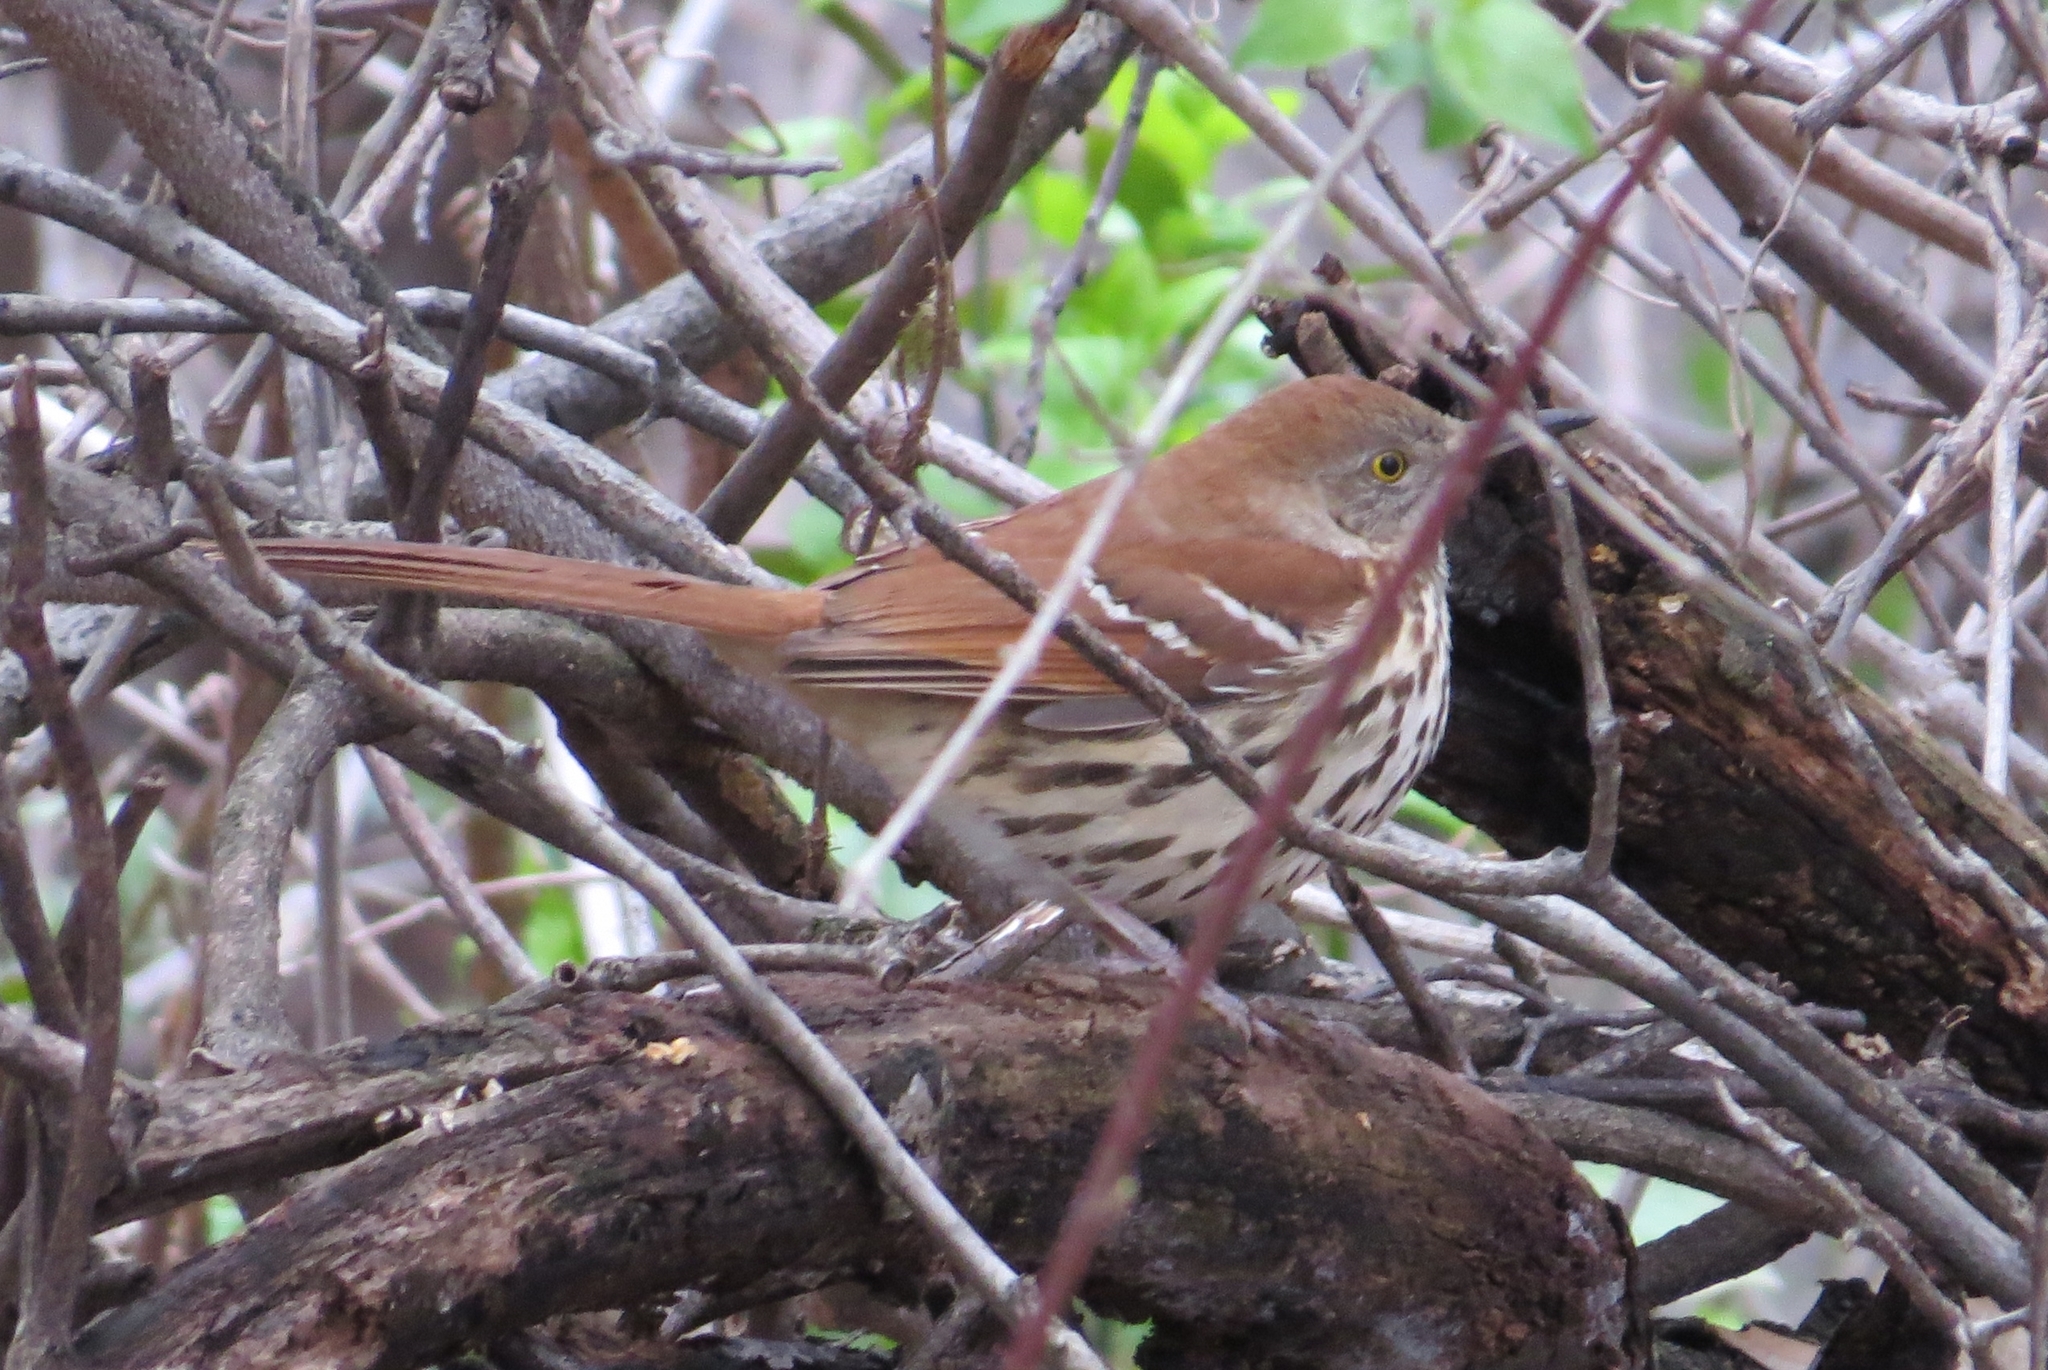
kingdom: Animalia
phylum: Chordata
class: Aves
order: Passeriformes
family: Mimidae
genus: Toxostoma
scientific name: Toxostoma rufum
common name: Brown thrasher
